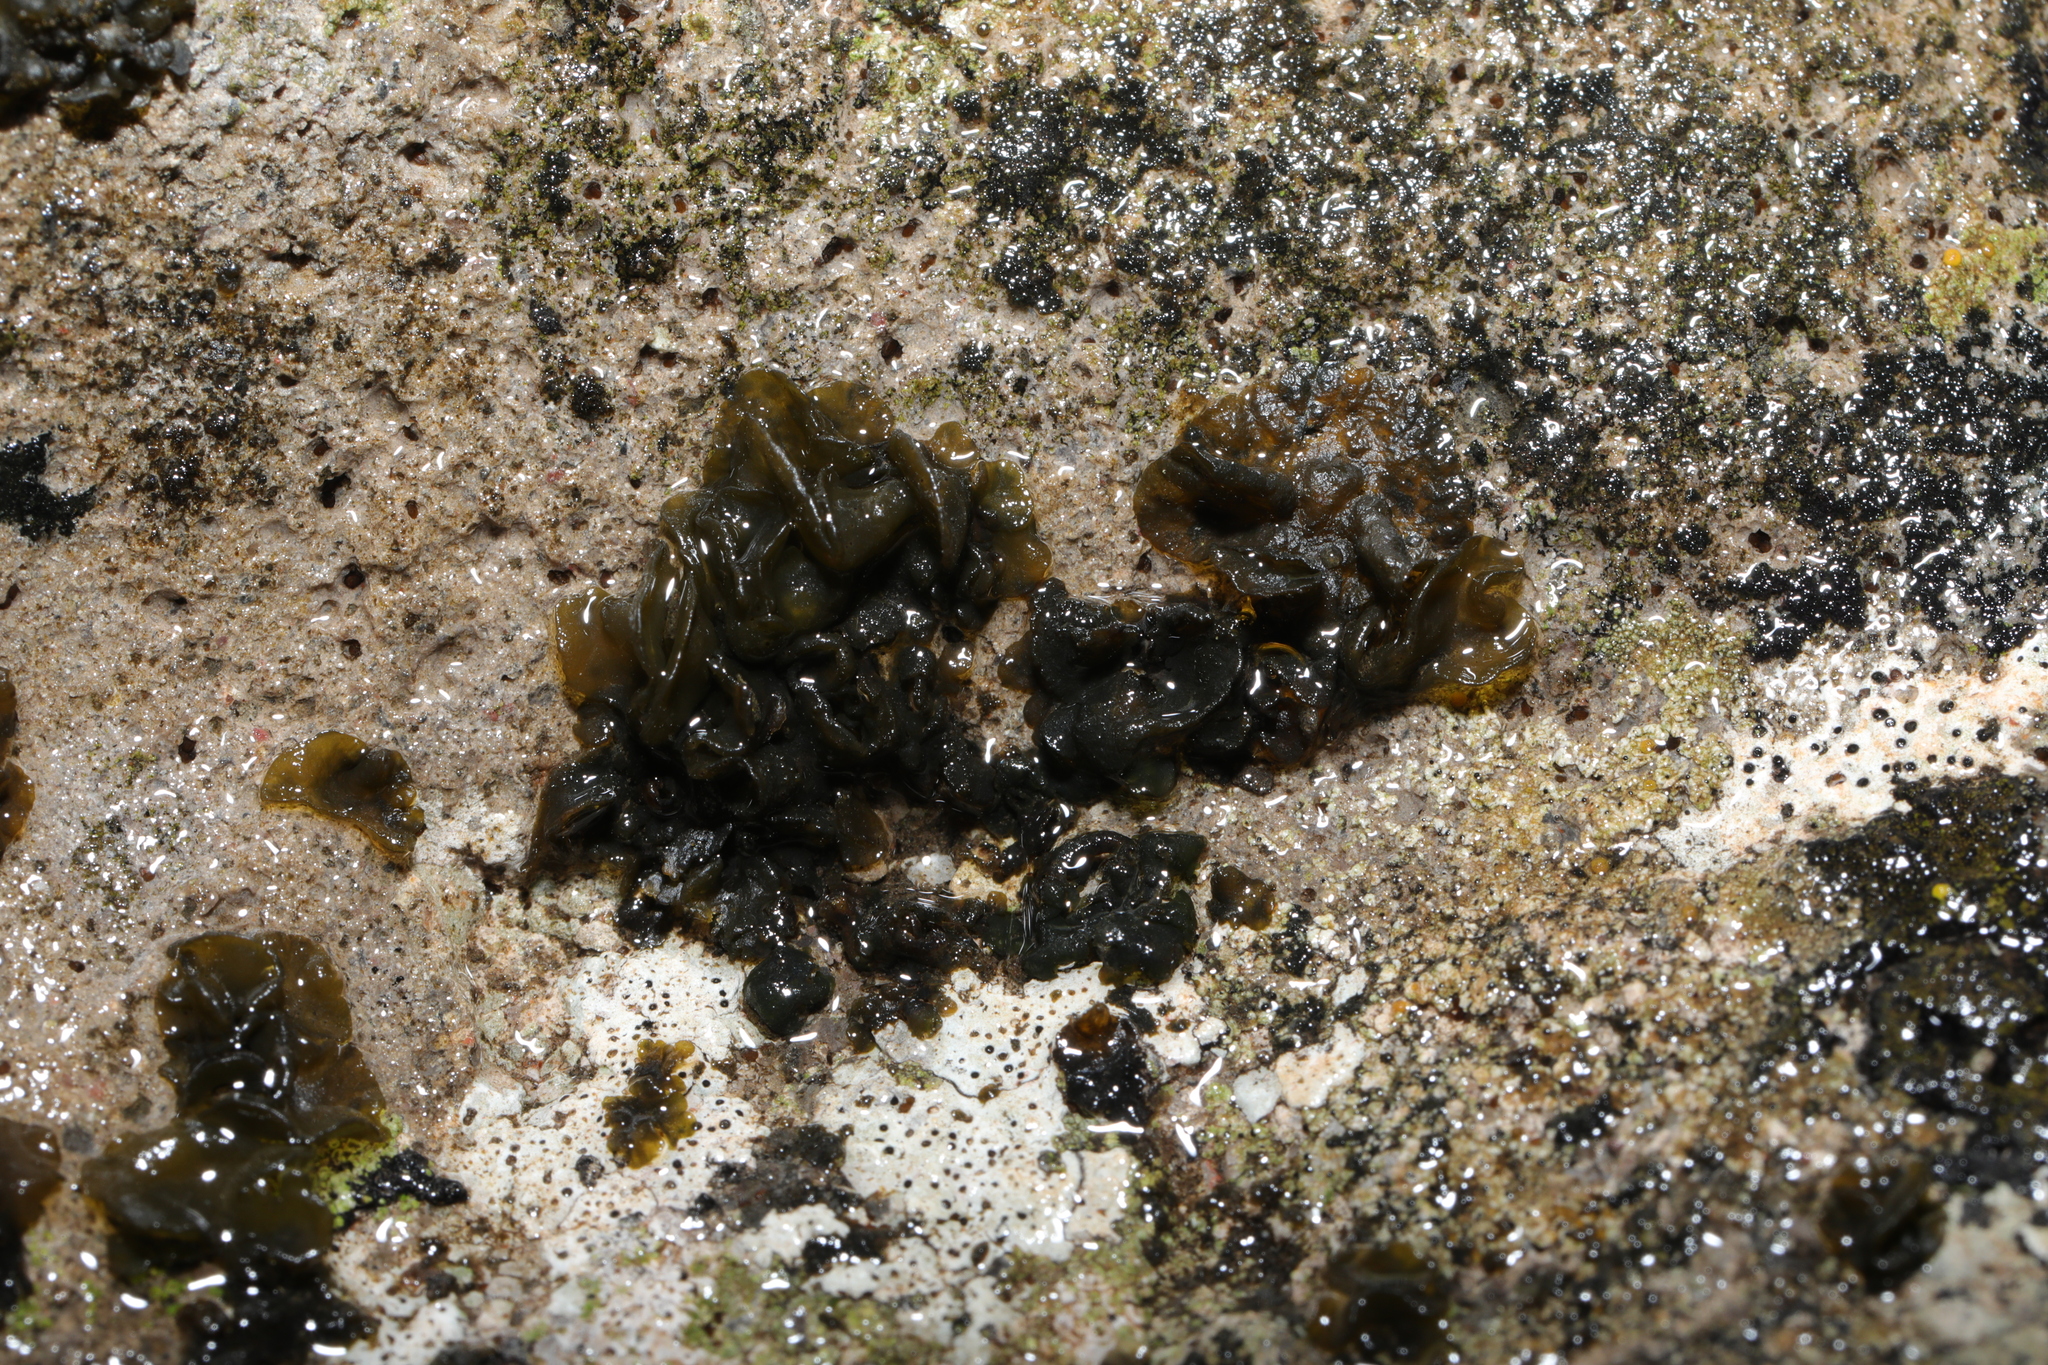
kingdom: Bacteria
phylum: Cyanobacteria
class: Cyanobacteriia
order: Cyanobacteriales
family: Nostocaceae
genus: Nostoc
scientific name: Nostoc commune
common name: Star jelly
